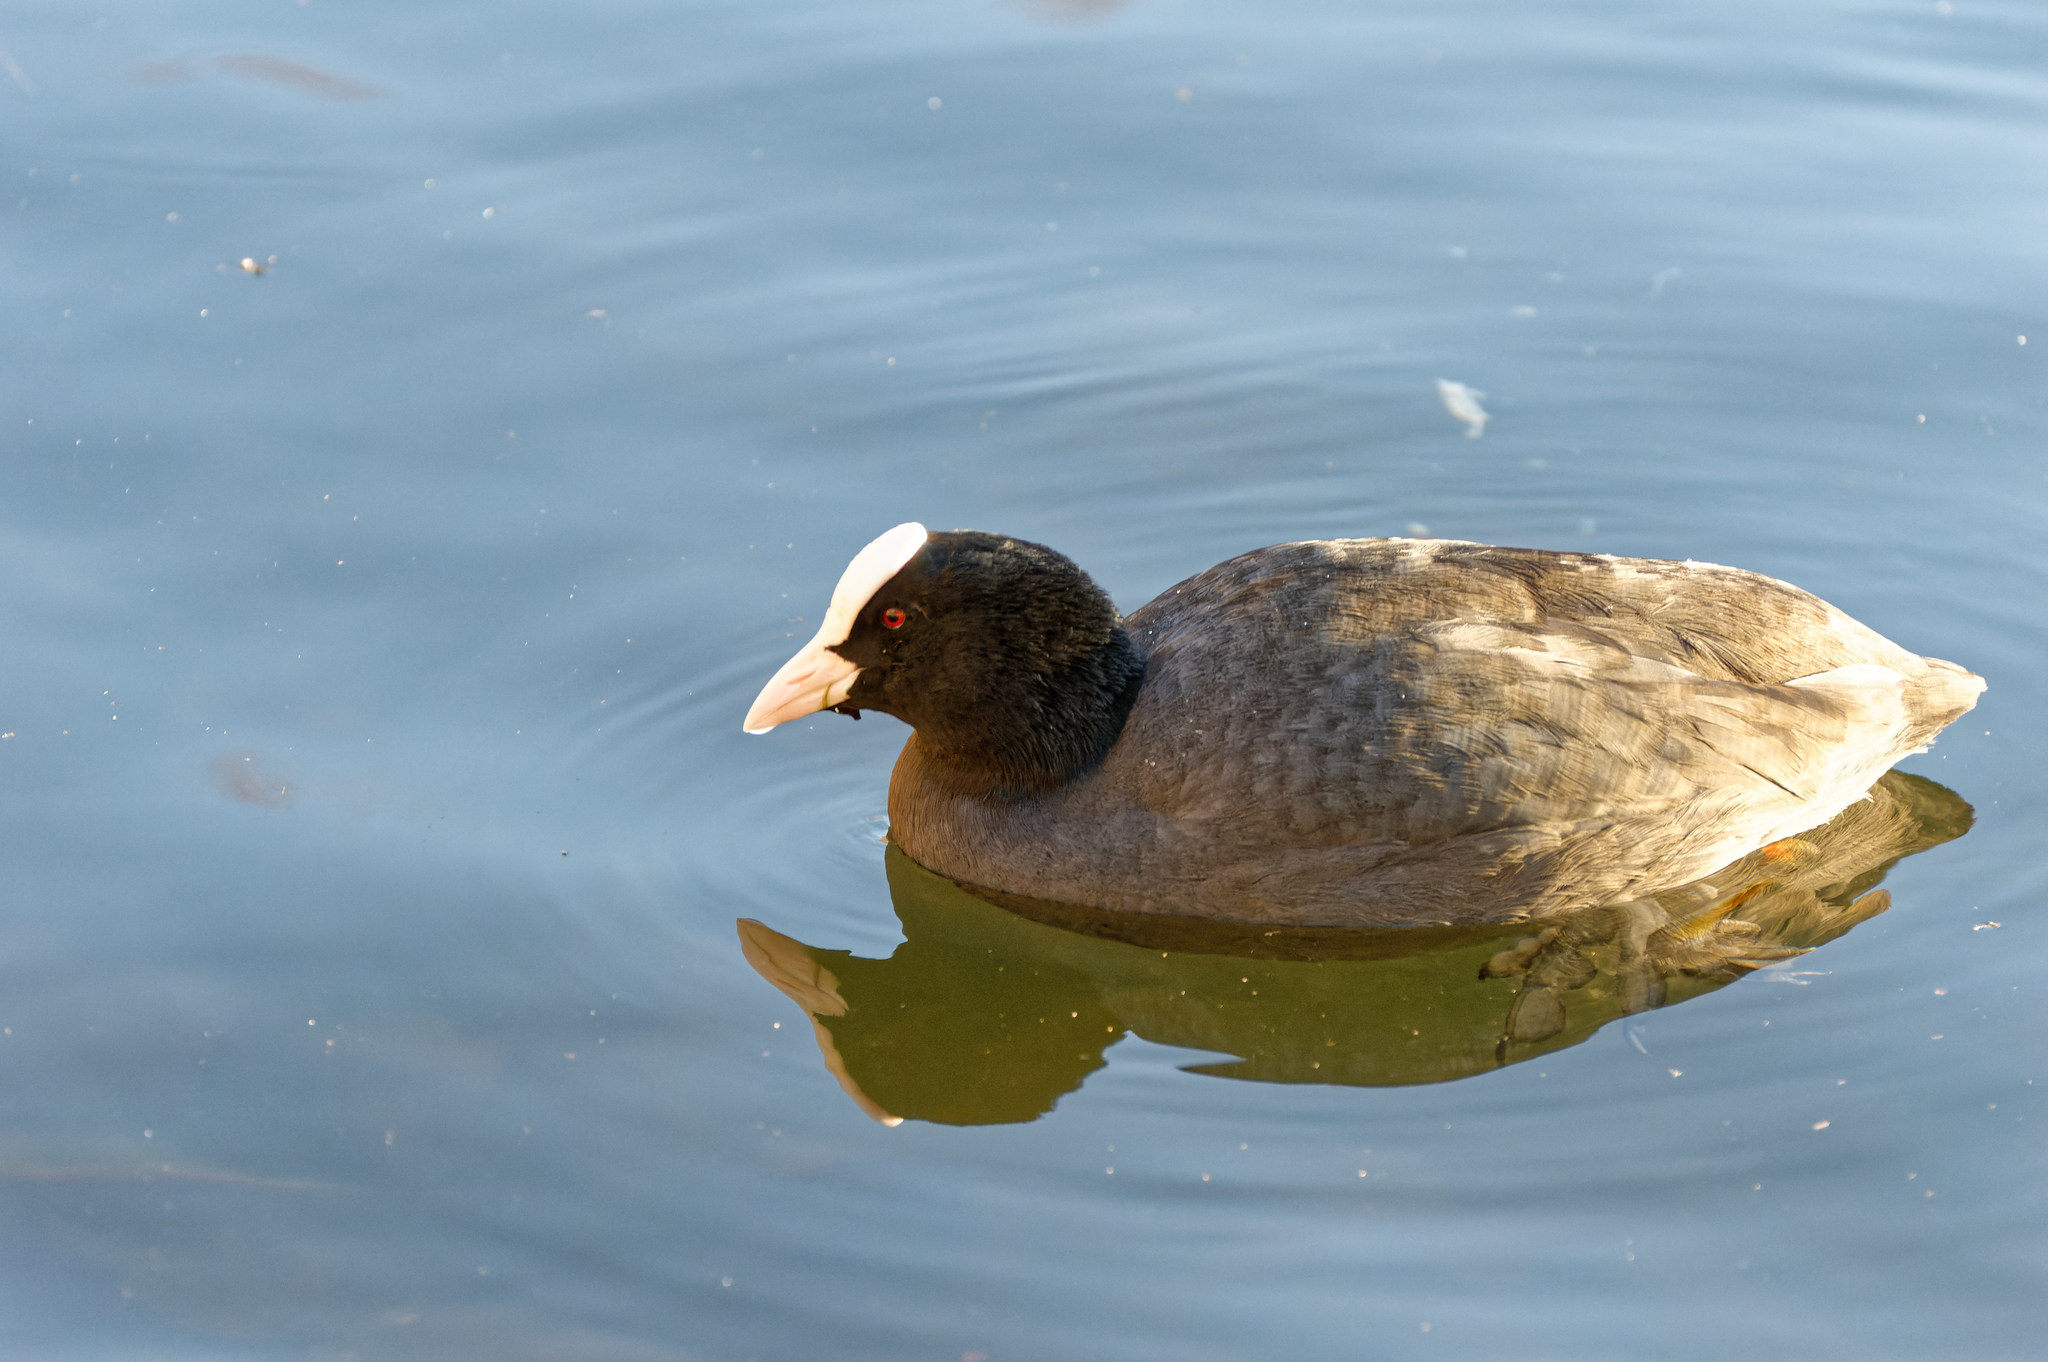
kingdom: Animalia
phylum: Chordata
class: Aves
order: Gruiformes
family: Rallidae
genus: Fulica
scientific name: Fulica atra
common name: Eurasian coot
